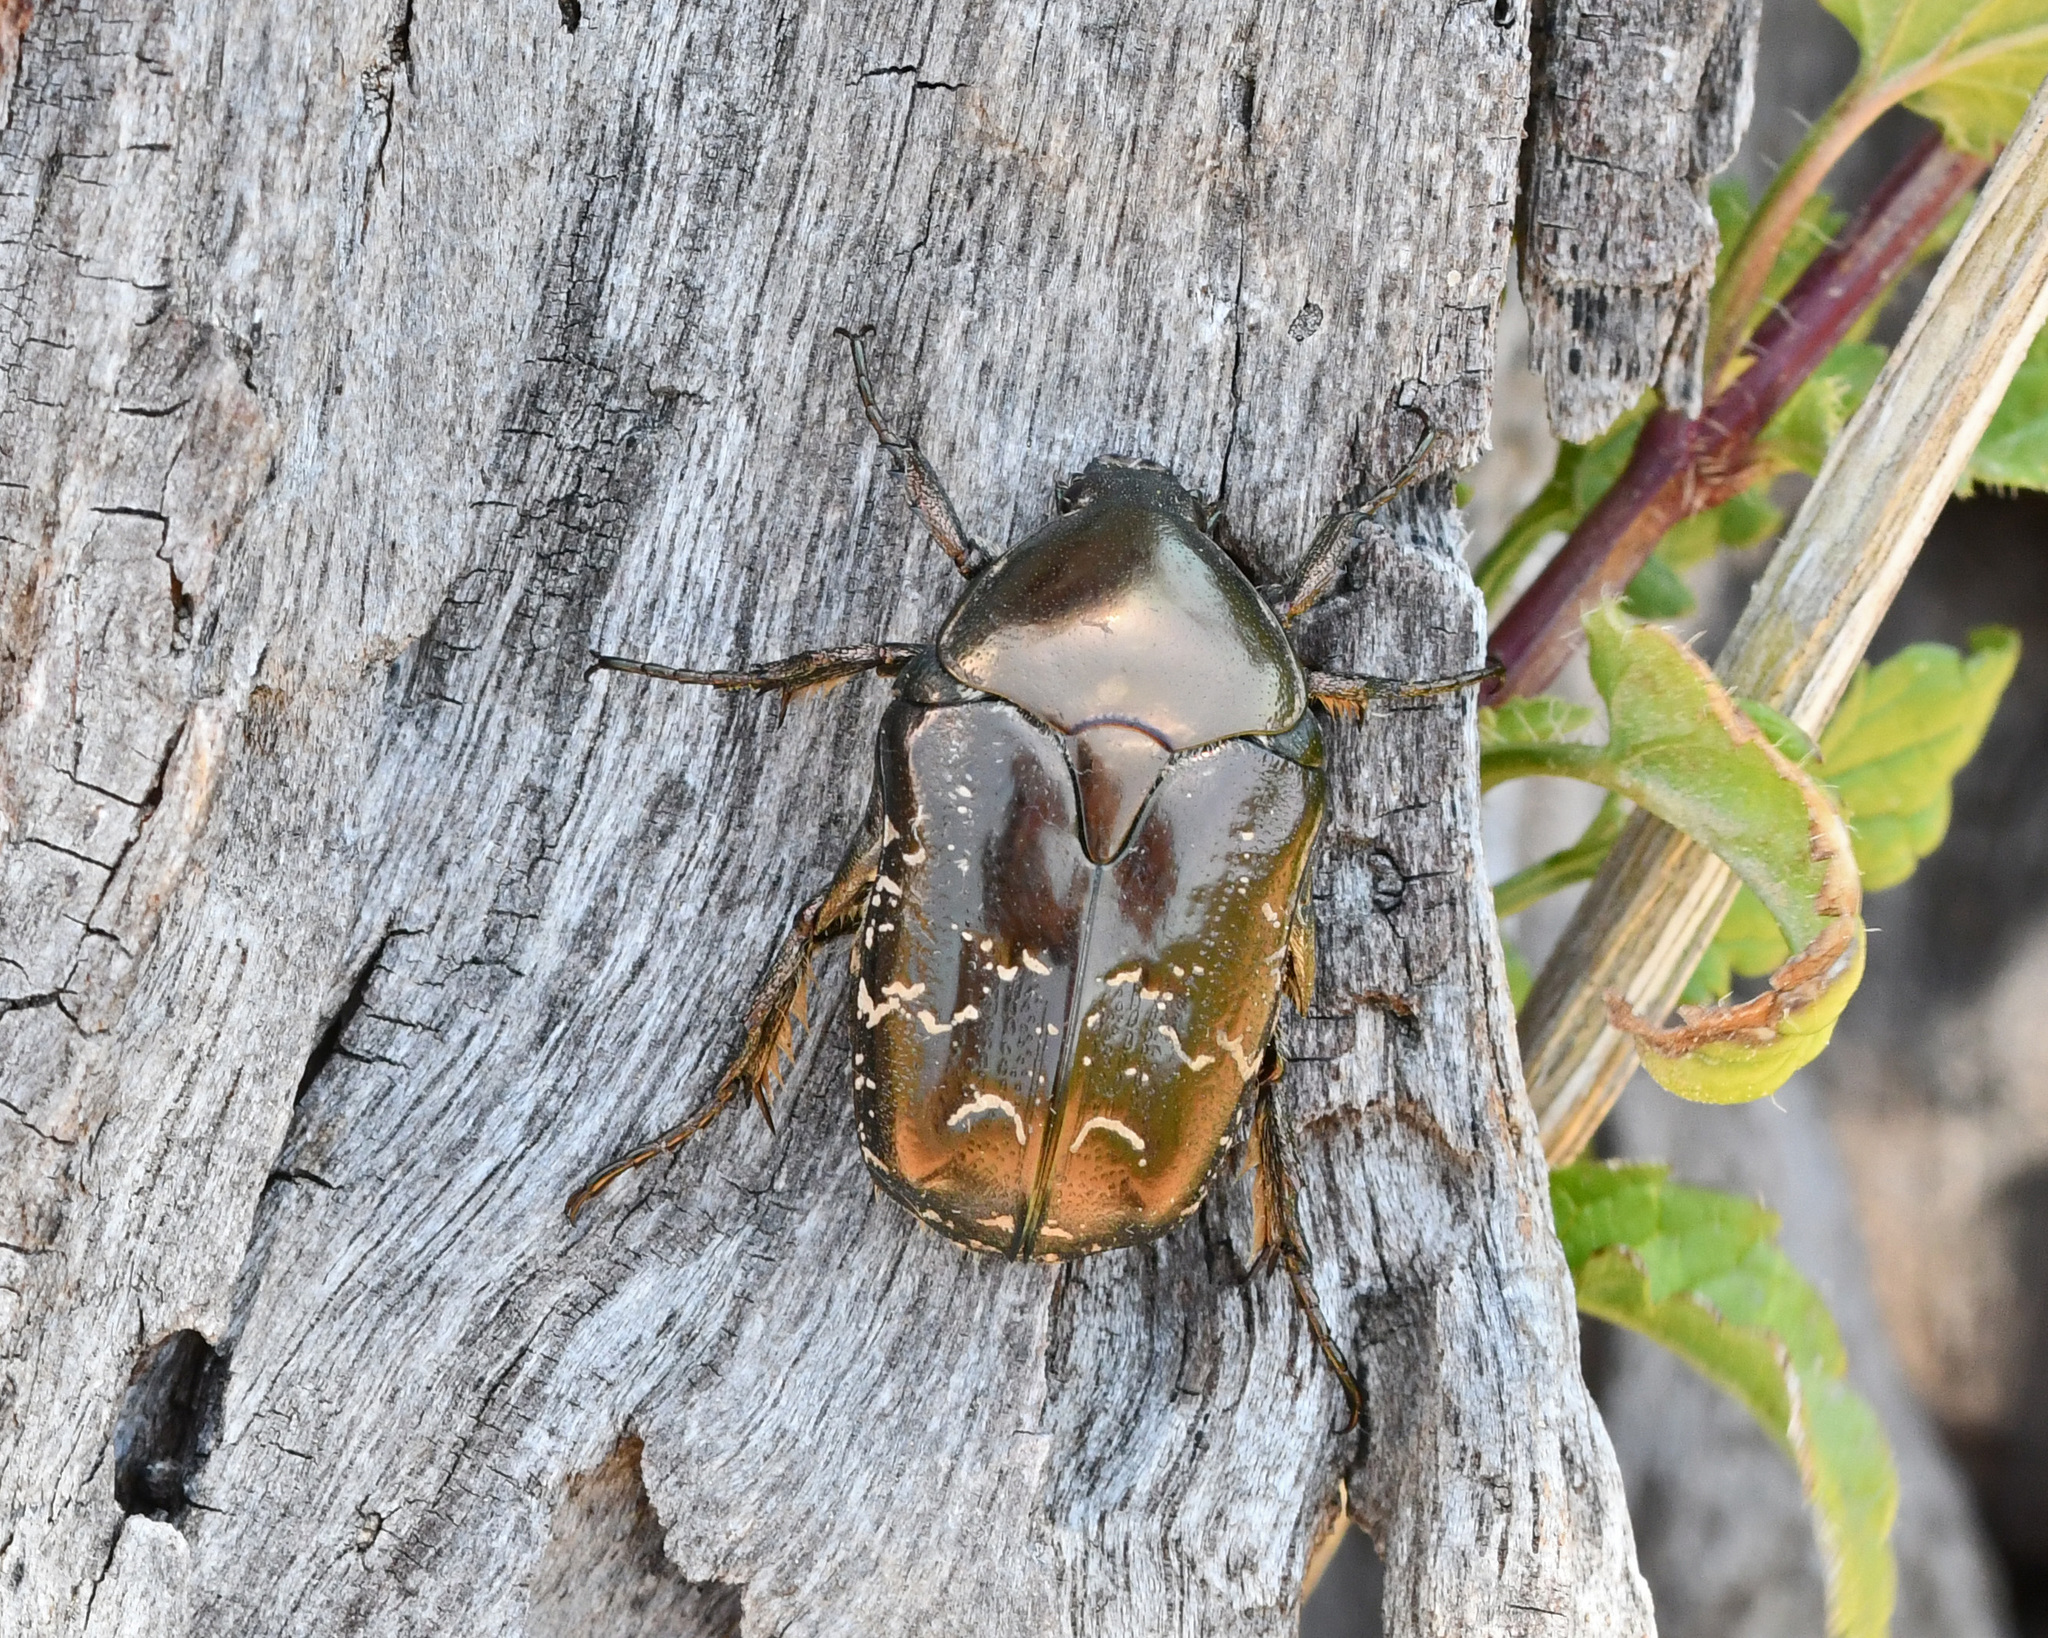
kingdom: Animalia
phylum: Arthropoda
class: Insecta
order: Coleoptera
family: Scarabaeidae
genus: Protaetia
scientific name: Protaetia ikonomovi
